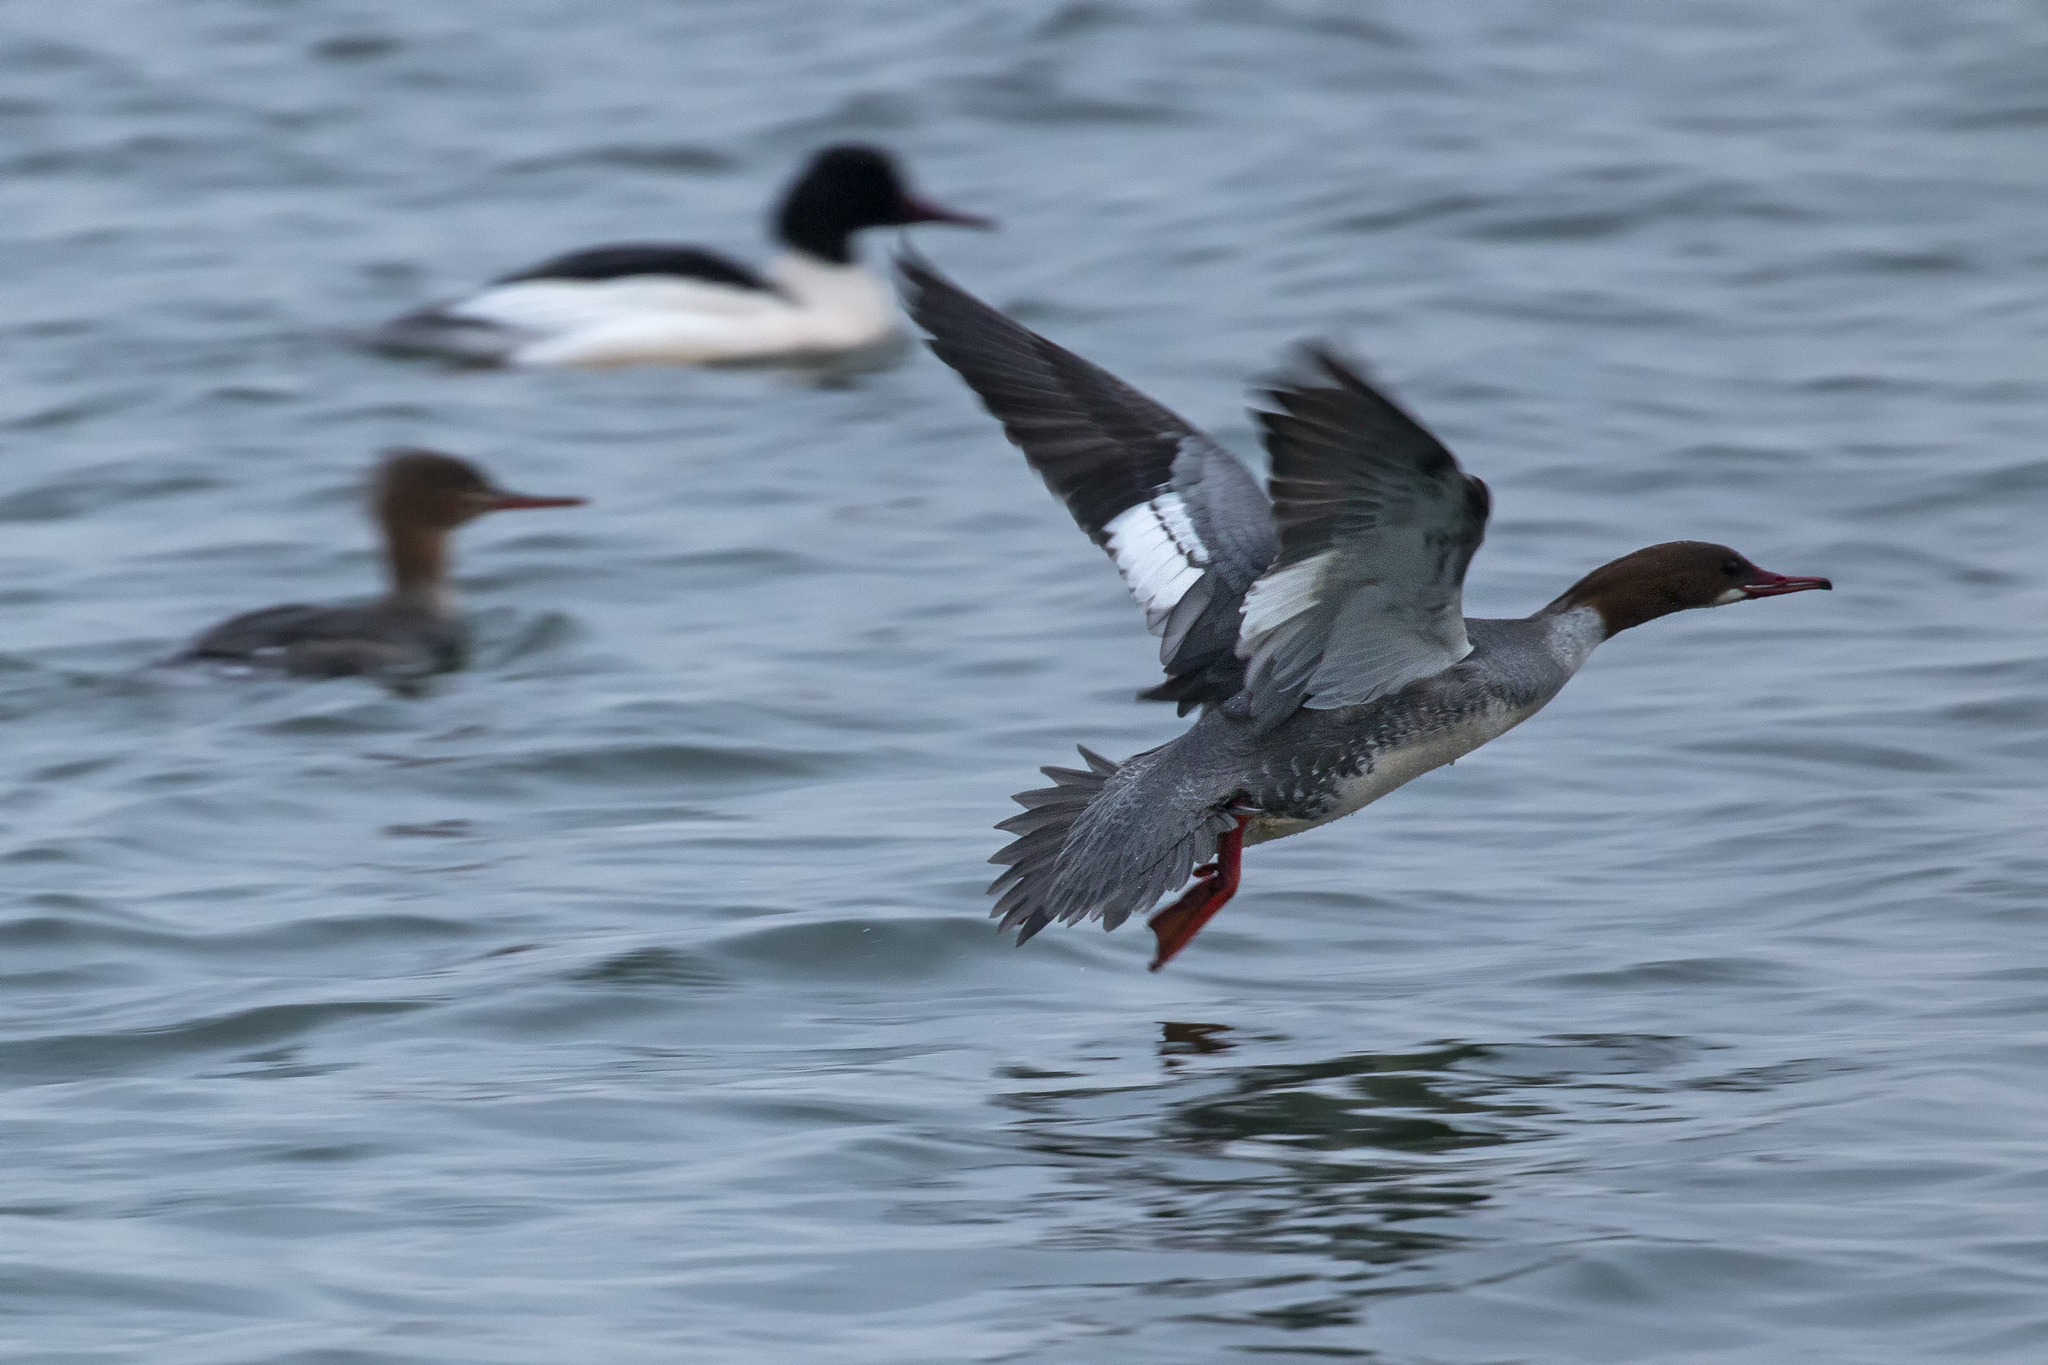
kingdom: Animalia
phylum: Chordata
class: Aves
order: Anseriformes
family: Anatidae
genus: Mergus
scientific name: Mergus merganser
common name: Common merganser
